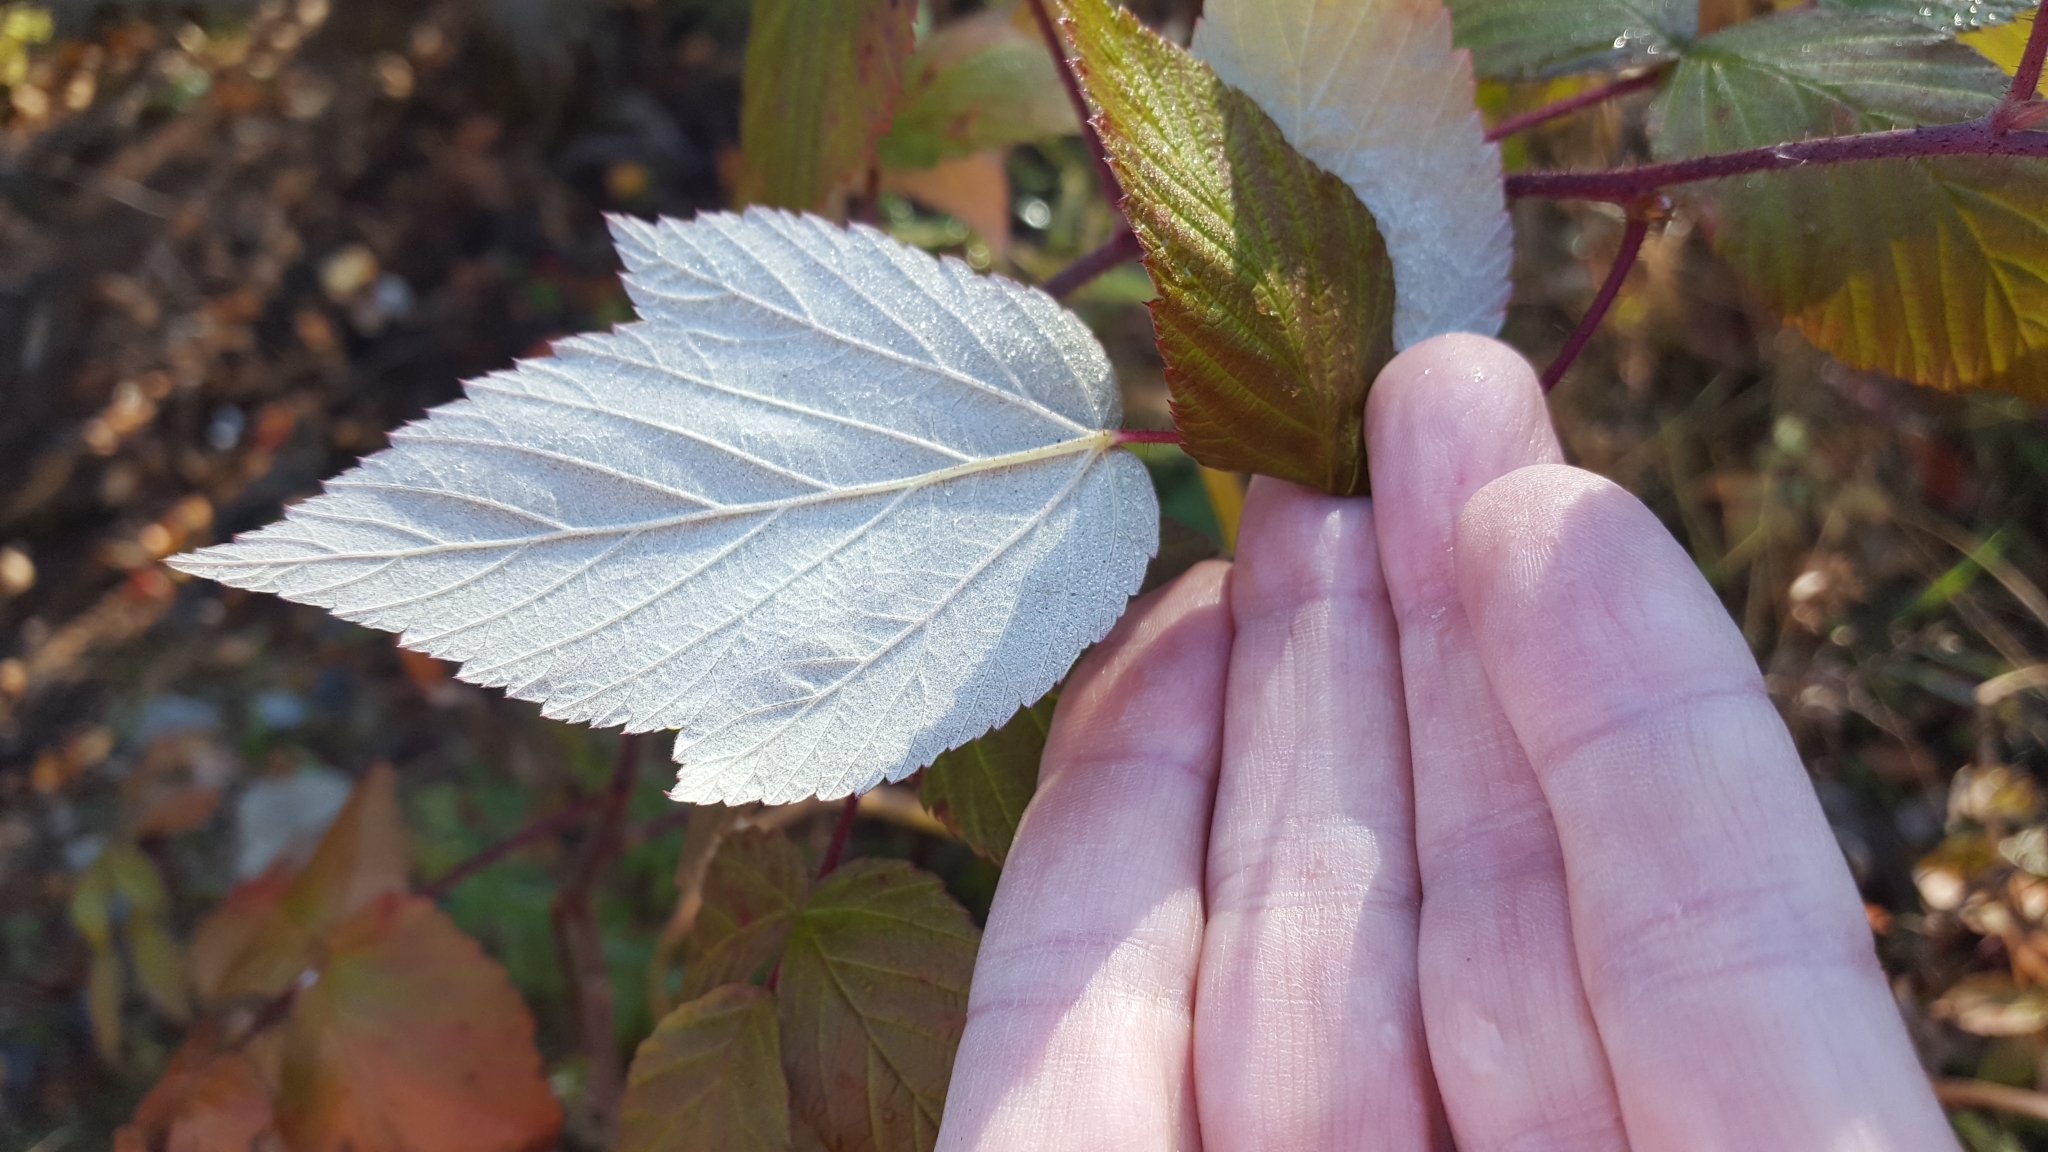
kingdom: Plantae
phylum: Tracheophyta
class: Magnoliopsida
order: Rosales
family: Rosaceae
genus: Rubus
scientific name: Rubus idaeus
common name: Raspberry
